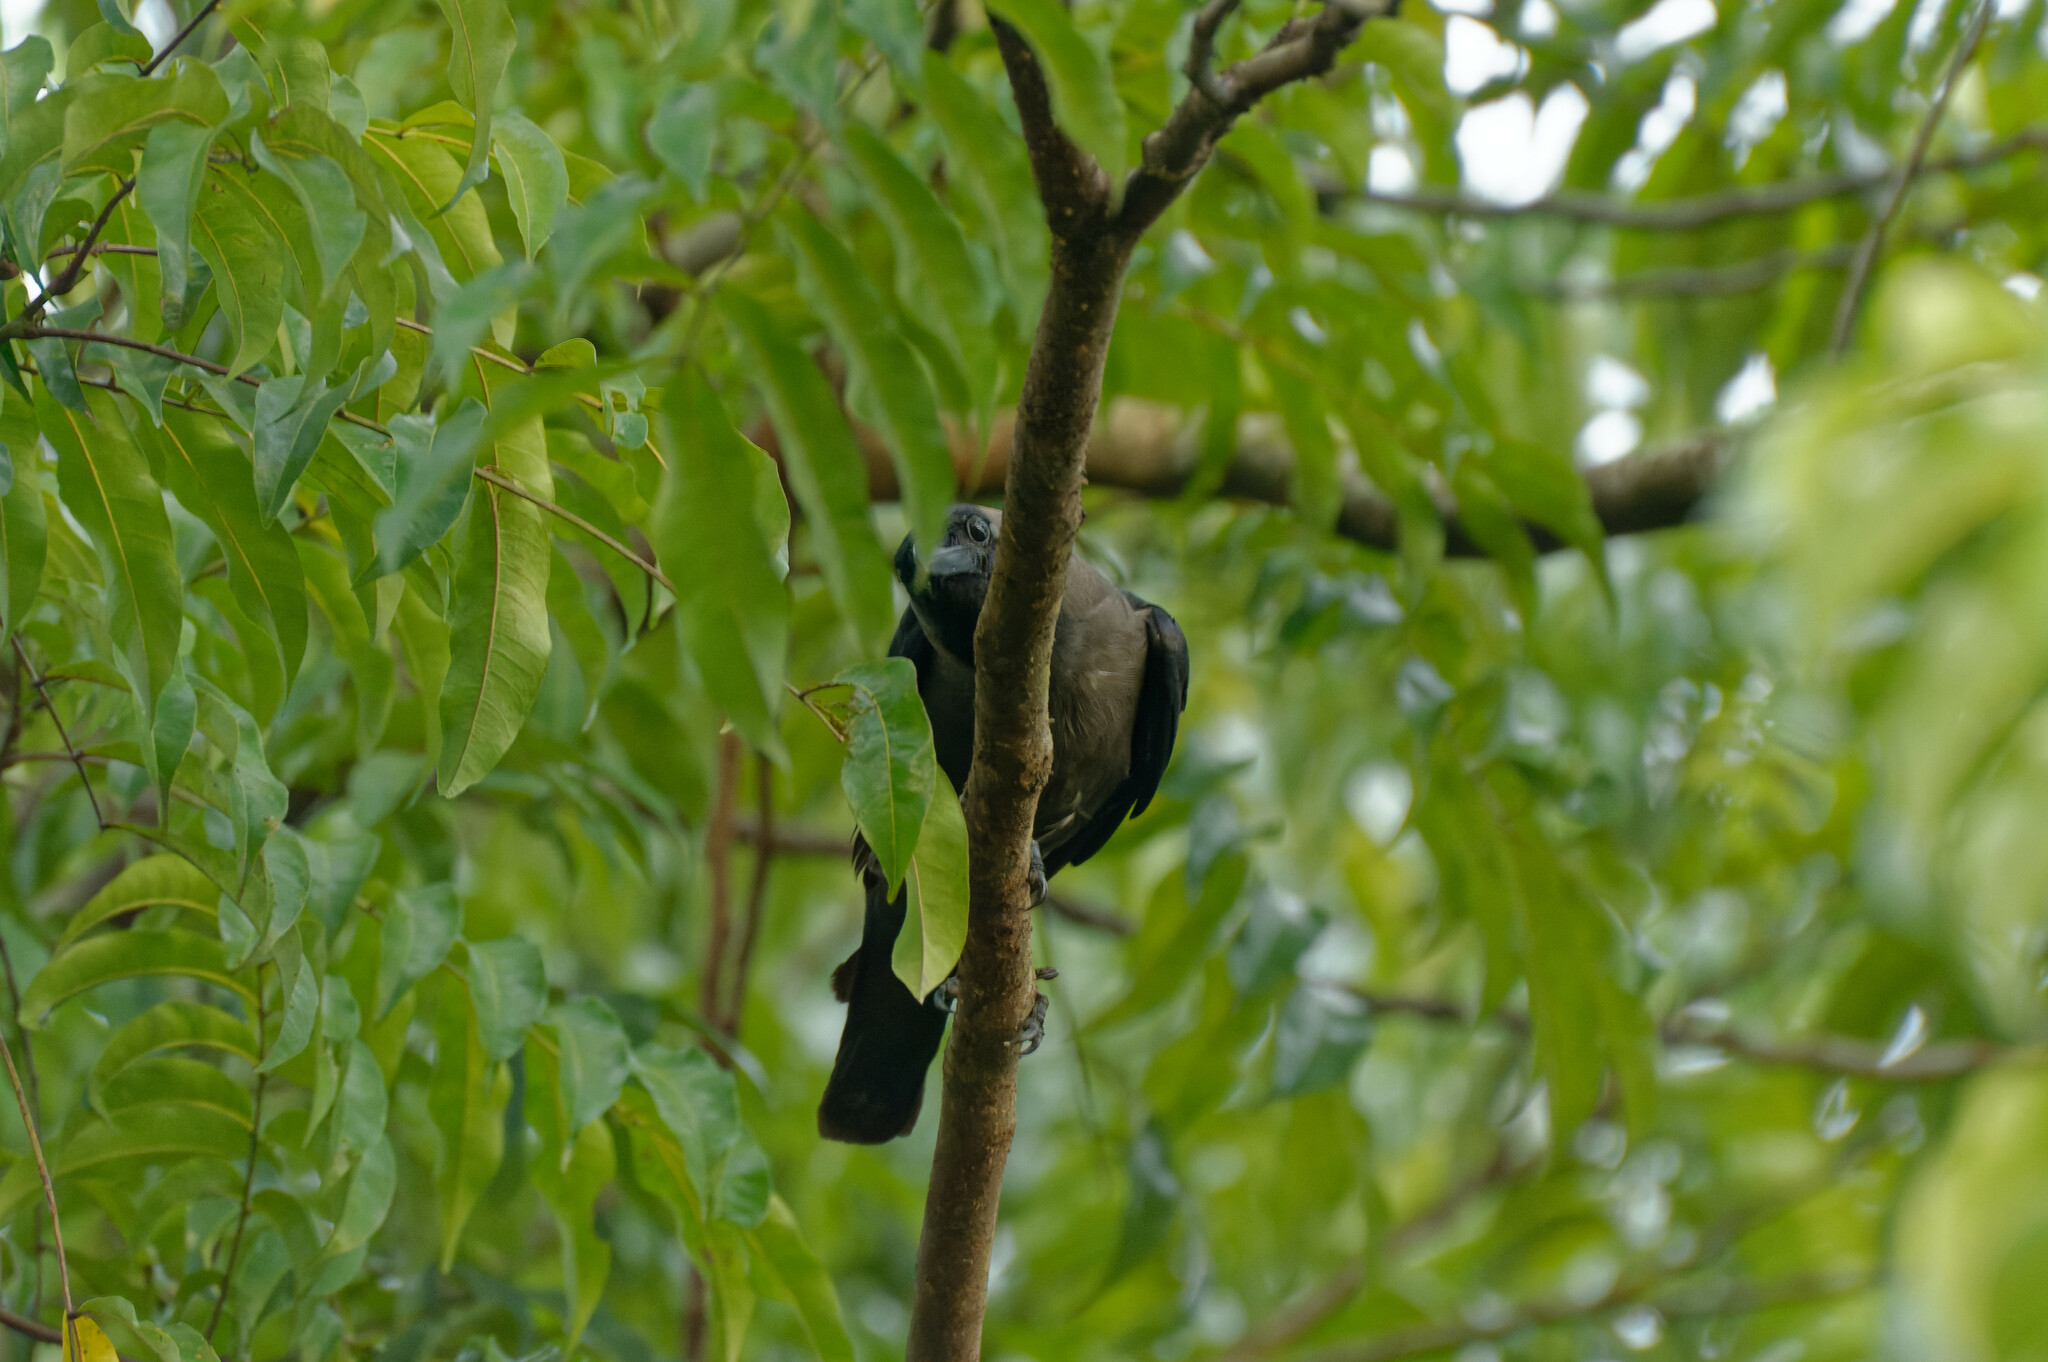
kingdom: Animalia
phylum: Chordata
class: Aves
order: Passeriformes
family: Corvidae
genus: Corvus
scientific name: Corvus splendens
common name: House crow
